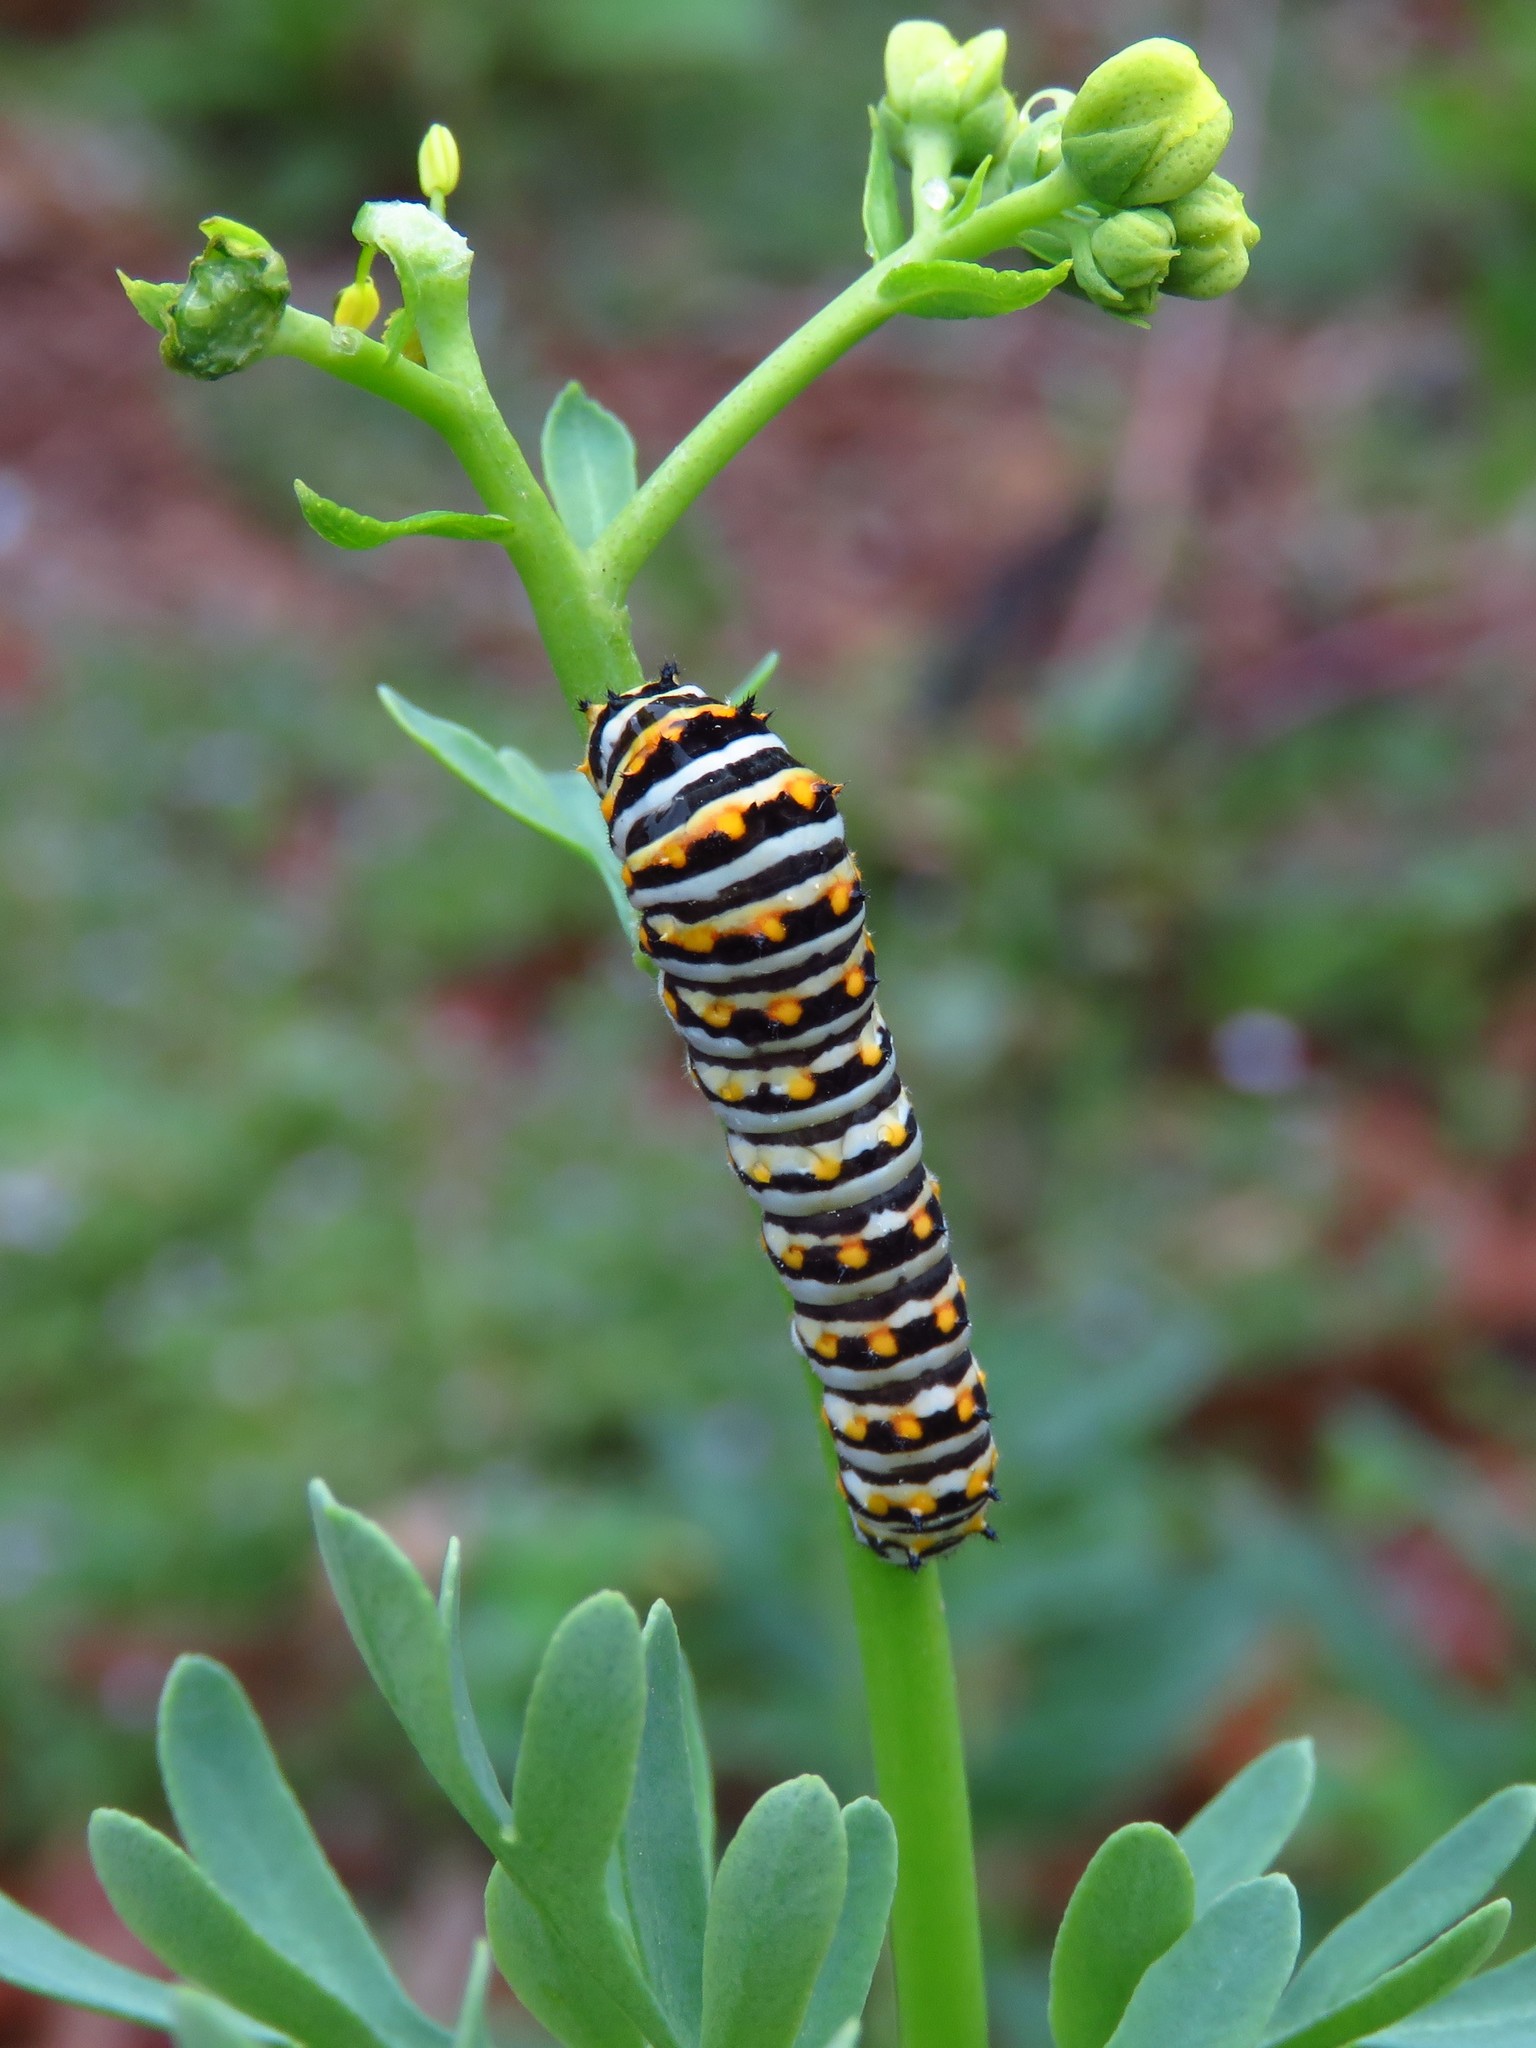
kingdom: Animalia
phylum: Arthropoda
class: Insecta
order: Lepidoptera
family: Papilionidae
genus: Papilio
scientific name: Papilio polyxenes
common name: Black swallowtail
